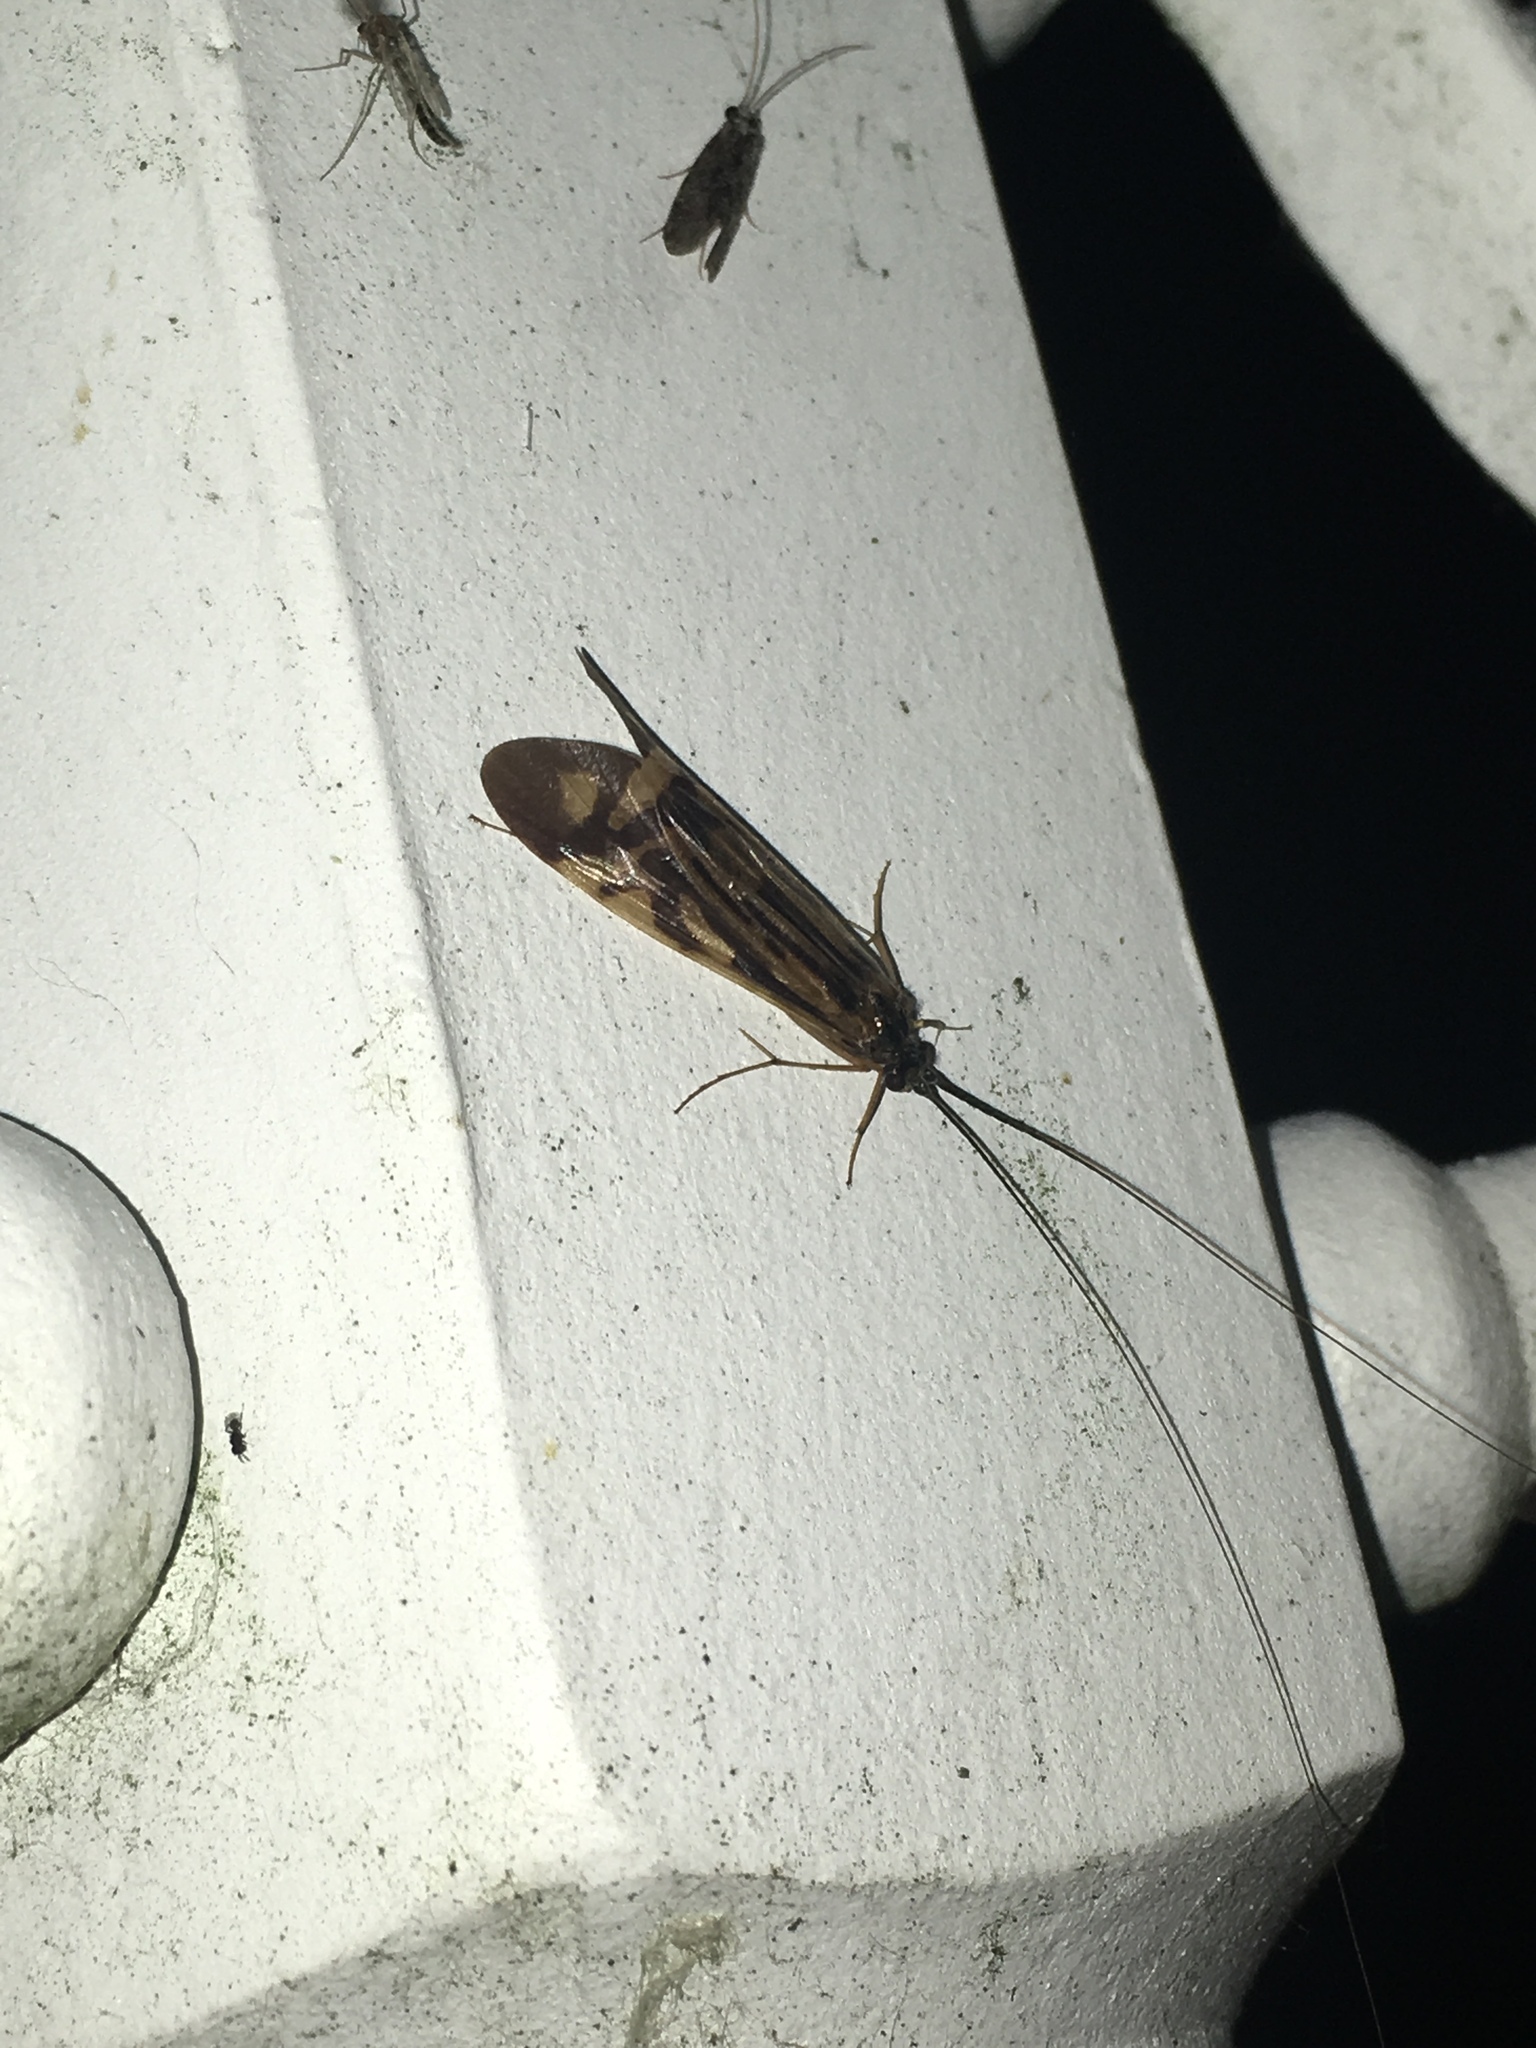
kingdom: Animalia
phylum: Arthropoda
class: Insecta
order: Trichoptera
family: Hydropsychidae
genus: Macrostemum
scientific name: Macrostemum zebratum
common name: Zebra caddisfly
